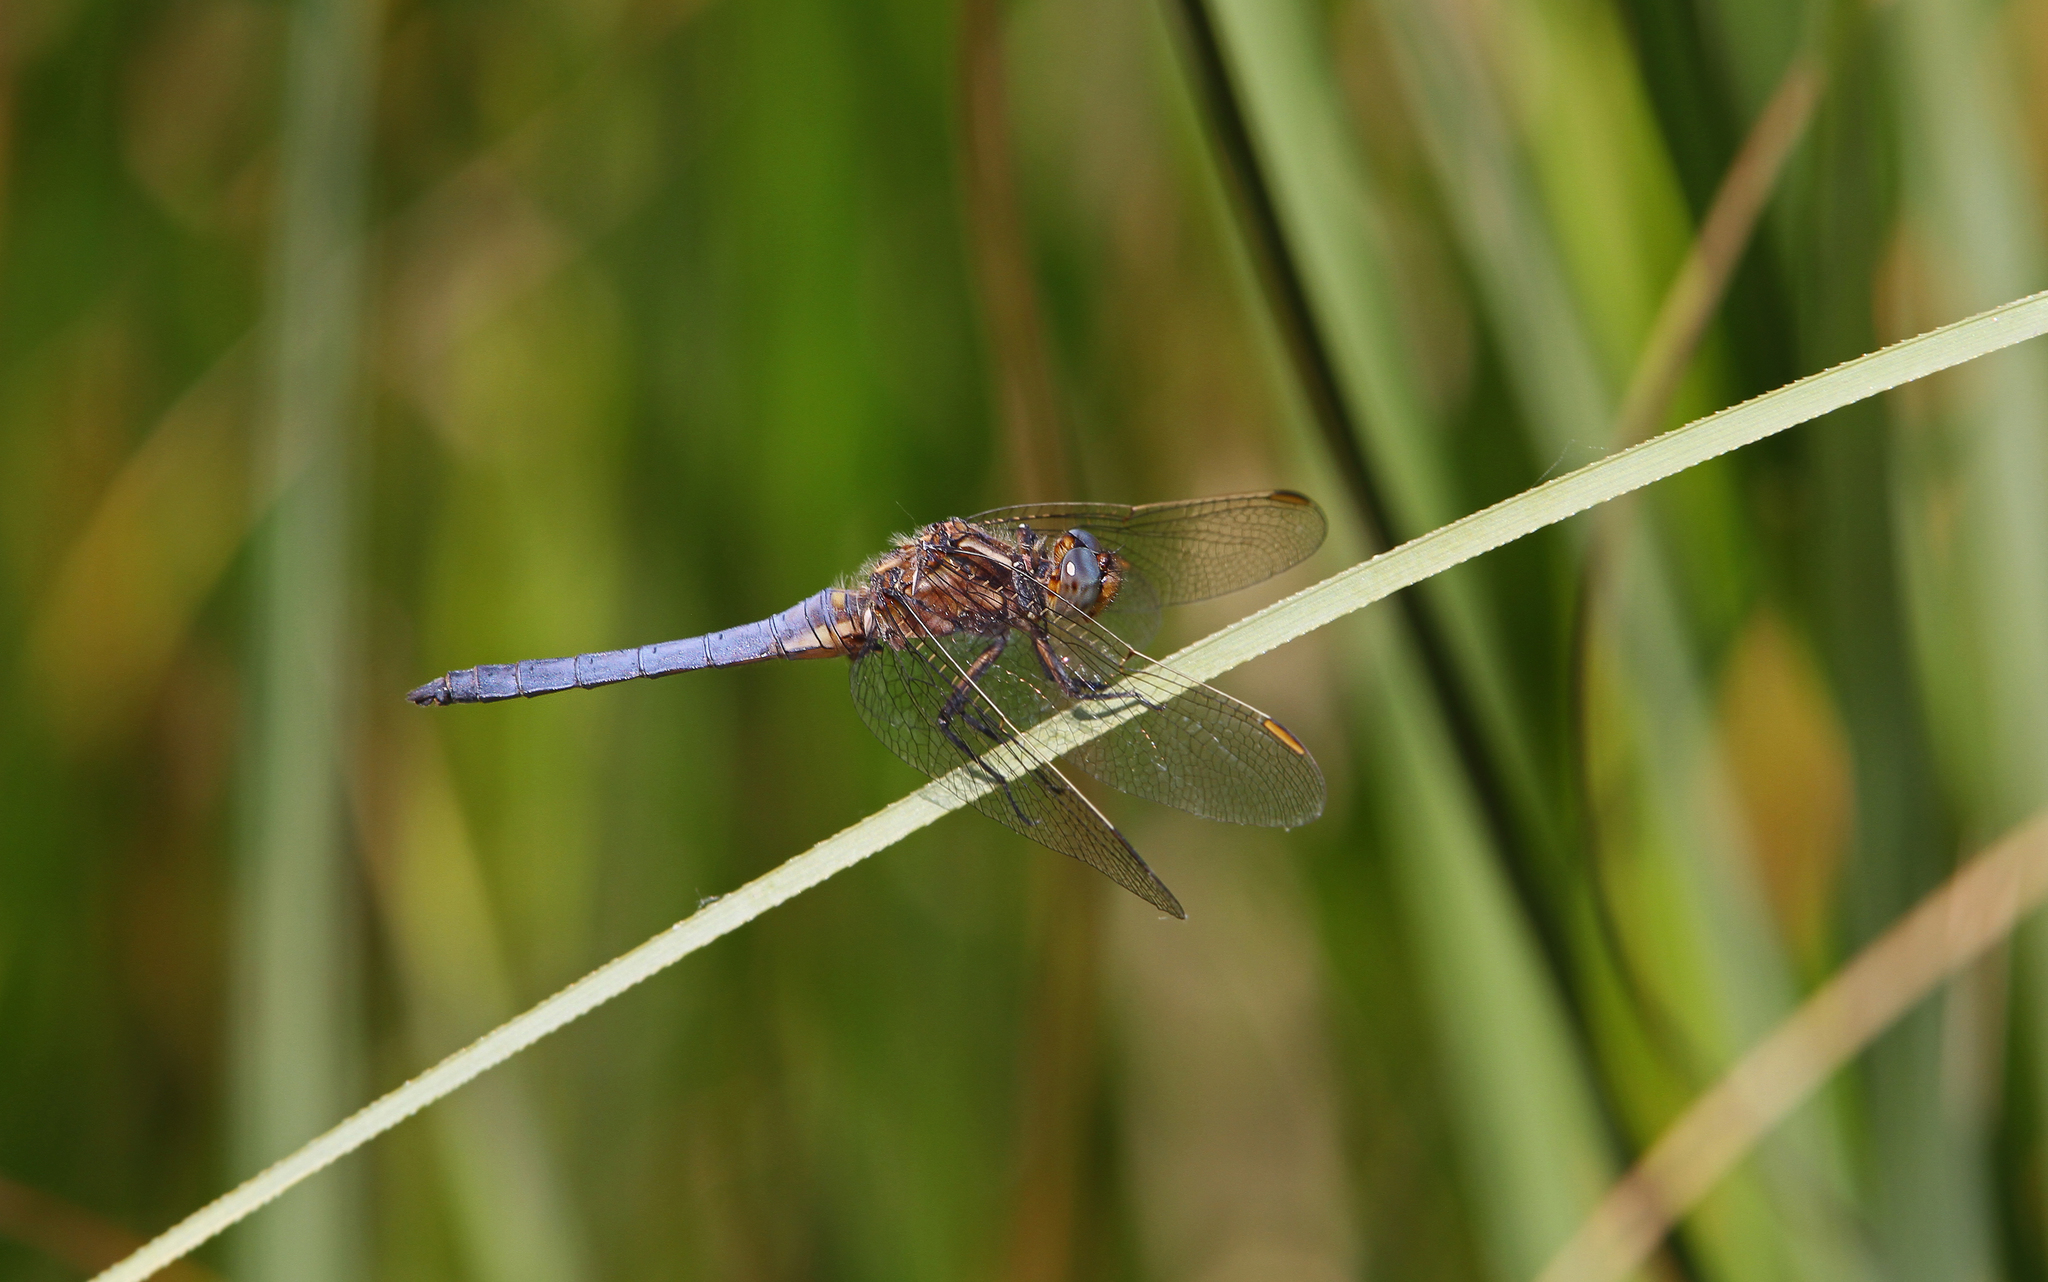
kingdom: Animalia
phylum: Arthropoda
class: Insecta
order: Odonata
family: Libellulidae
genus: Orthetrum
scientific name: Orthetrum coerulescens
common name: Keeled skimmer
